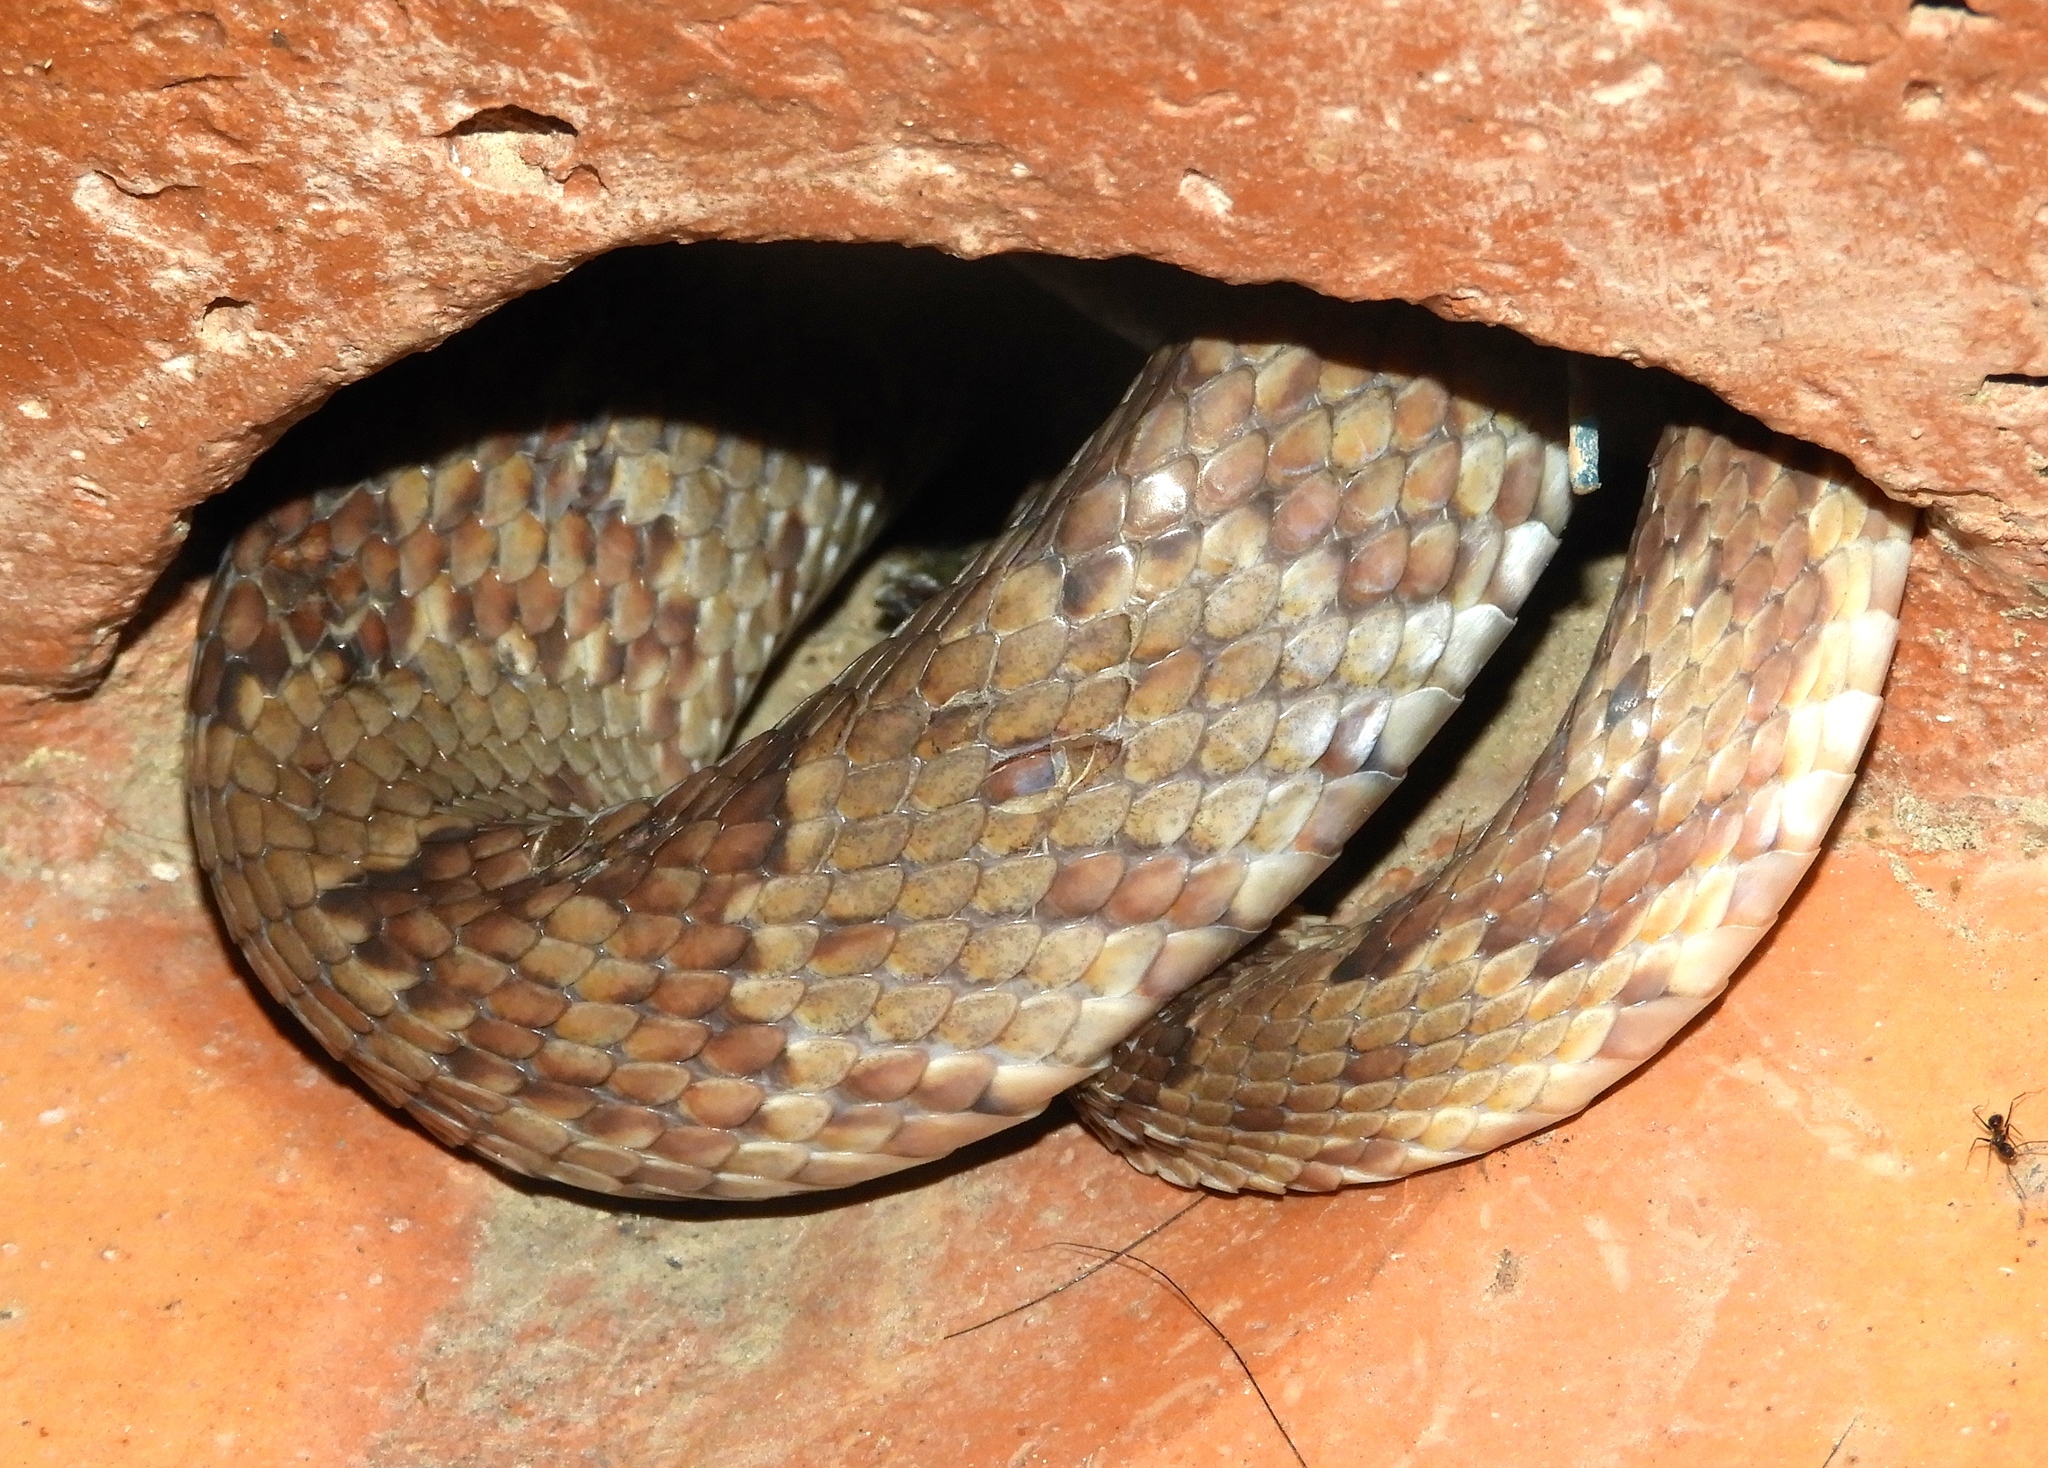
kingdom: Animalia
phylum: Chordata
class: Squamata
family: Colubridae
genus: Trimorphodon
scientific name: Trimorphodon paucimaculatus
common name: Sinaloan lyresnake
